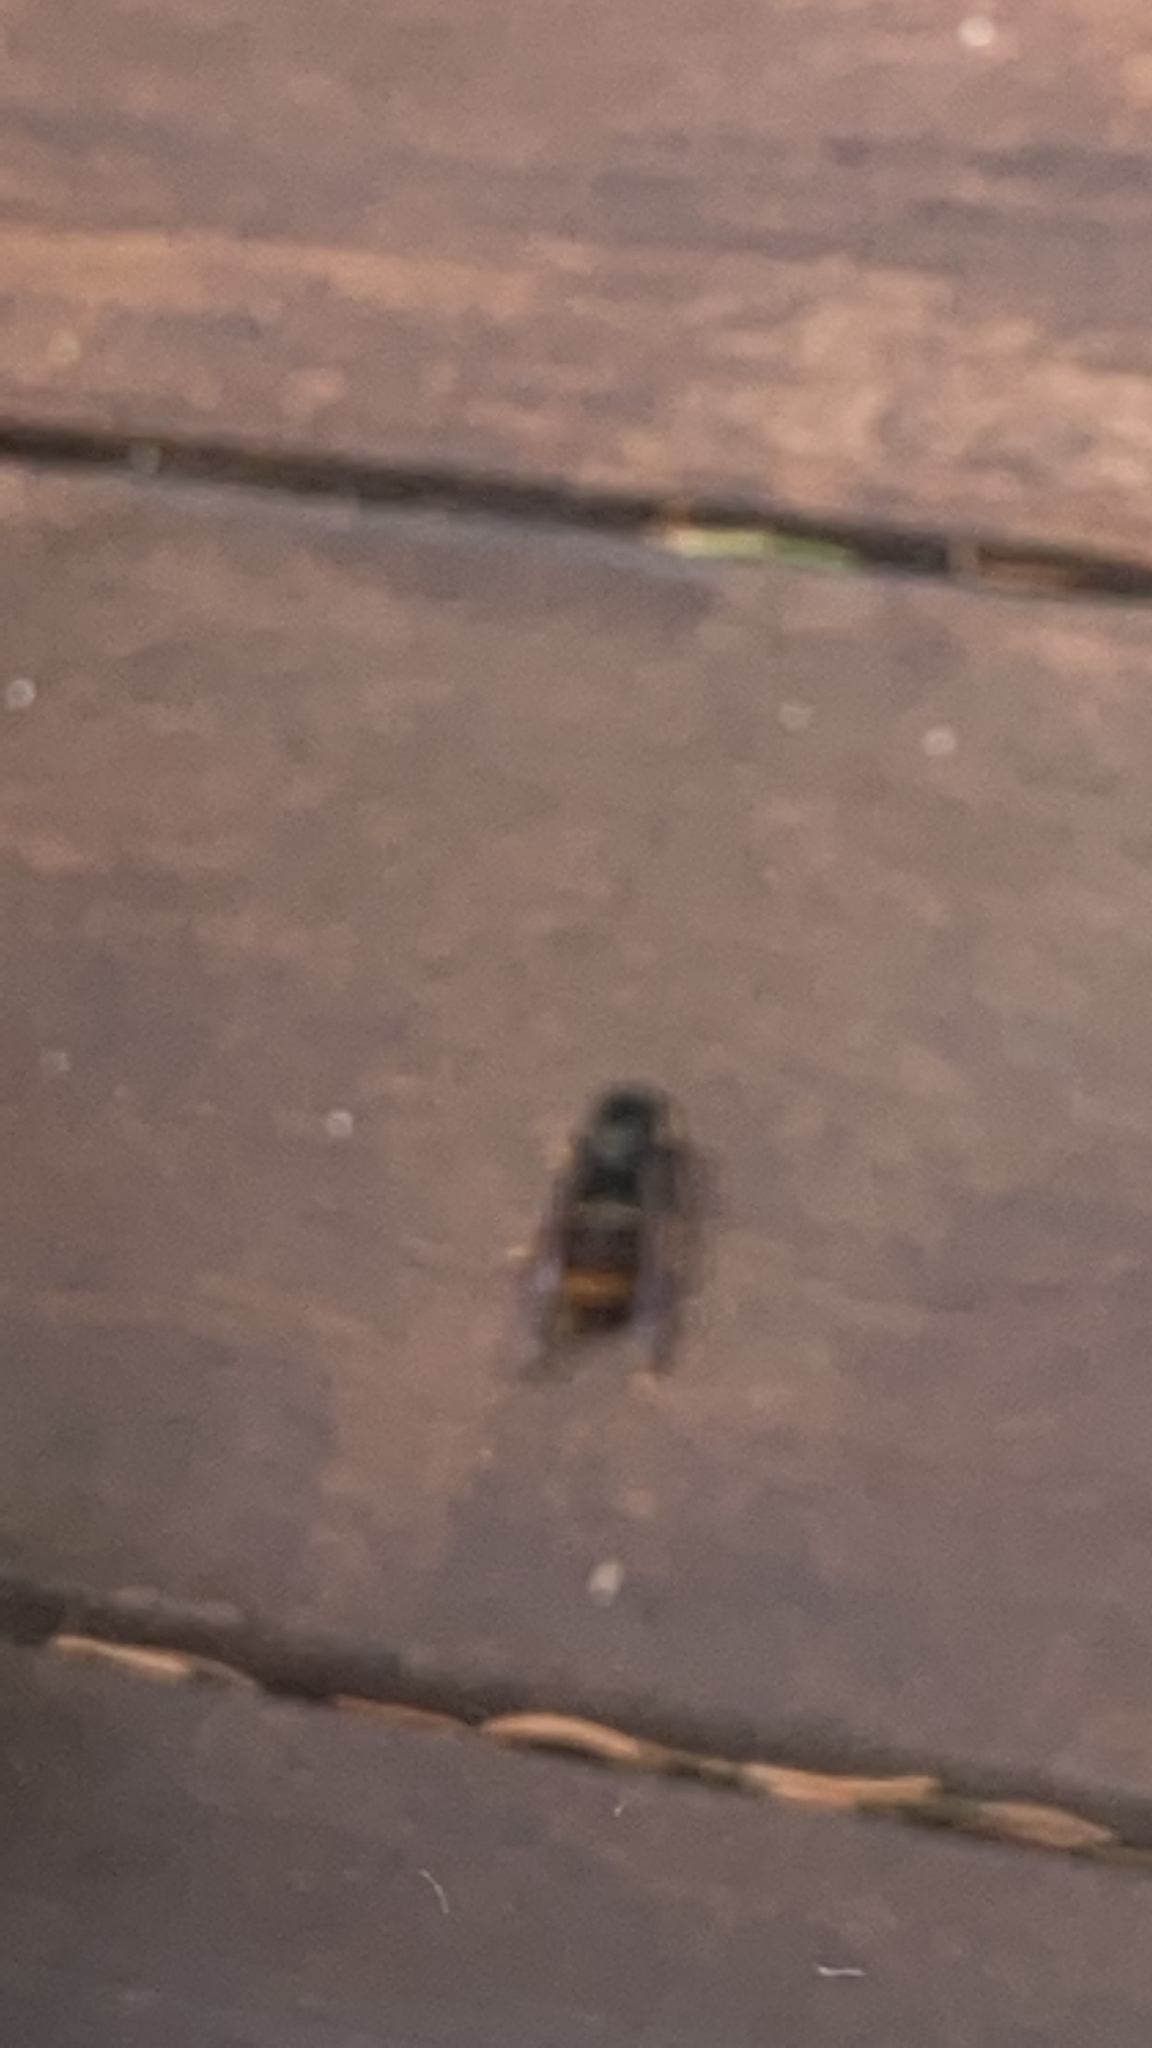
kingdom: Animalia
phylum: Arthropoda
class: Insecta
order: Hymenoptera
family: Vespidae
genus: Vespa
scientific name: Vespa velutina
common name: Asian hornet
